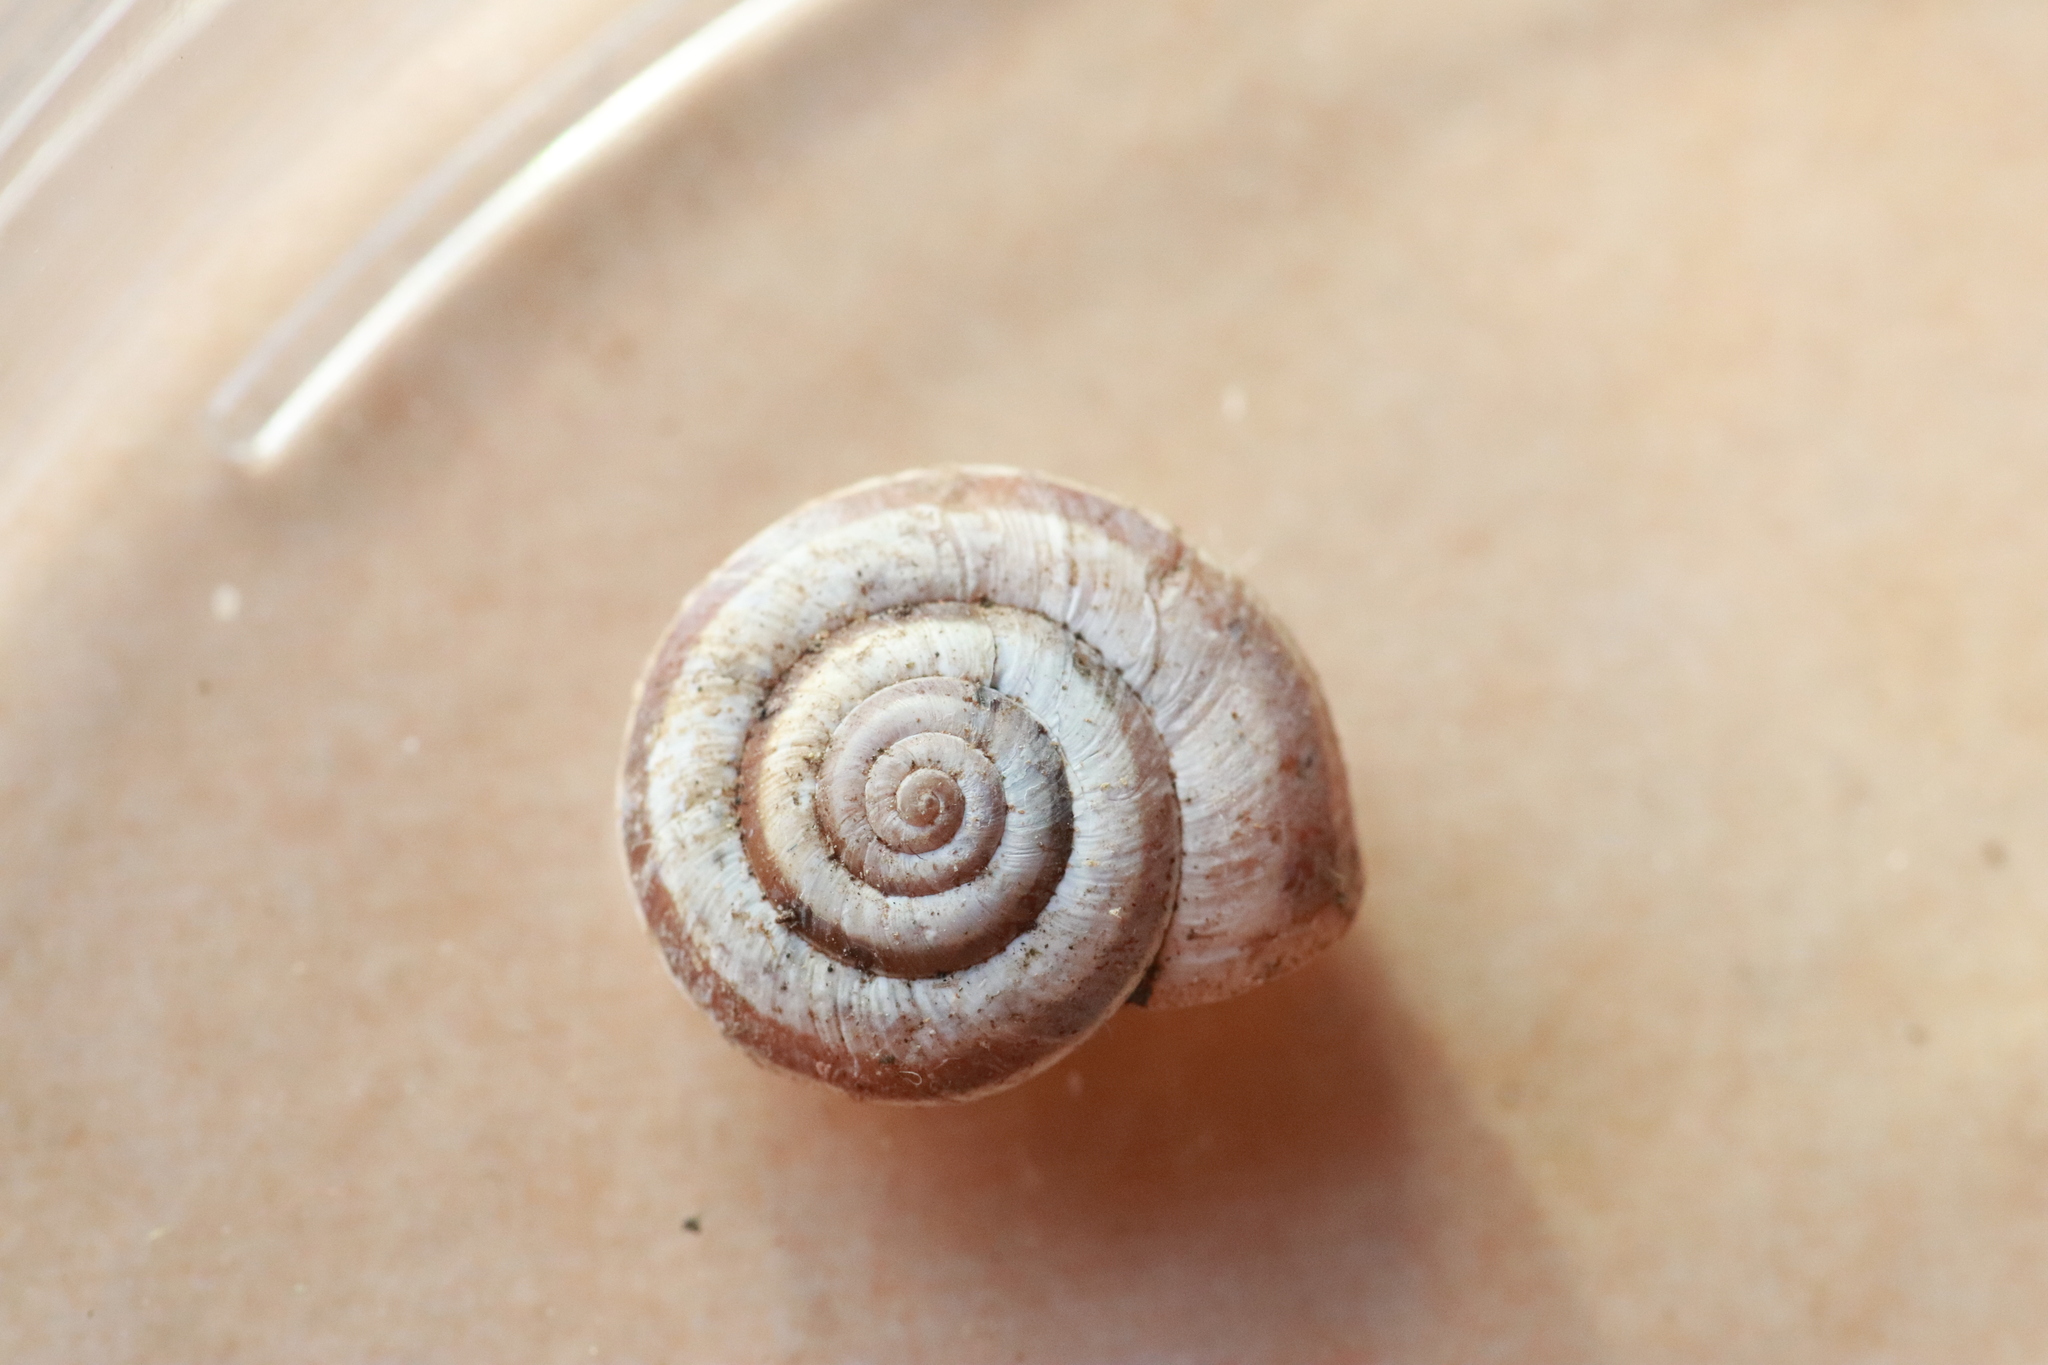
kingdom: Animalia
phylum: Mollusca
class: Gastropoda
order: Stylommatophora
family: Geomitridae
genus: Helicella
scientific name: Helicella itala
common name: Heath snail
